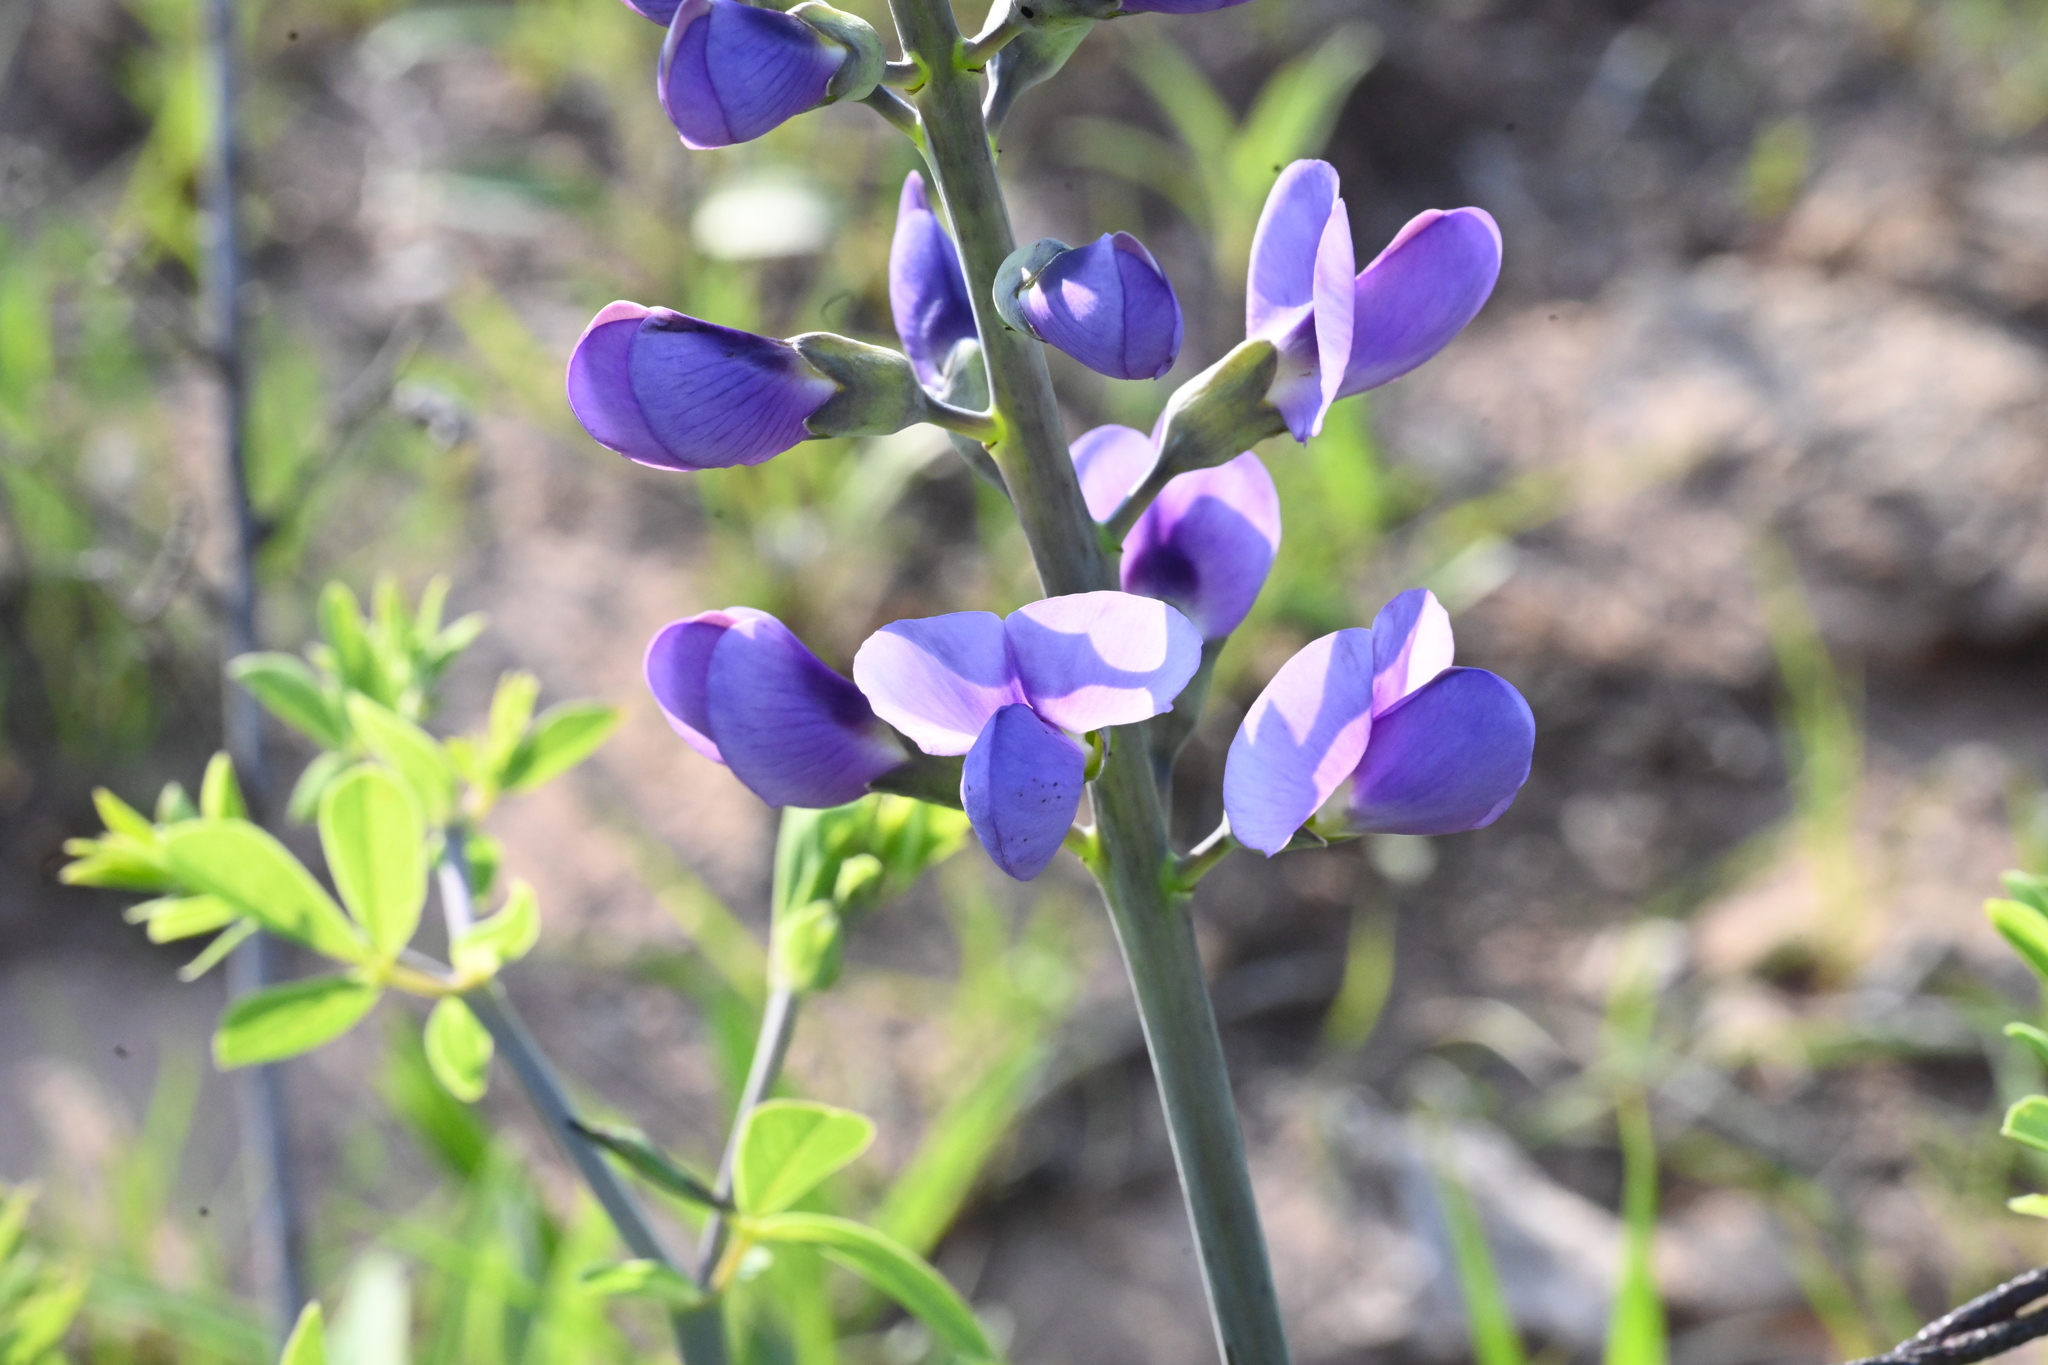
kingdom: Plantae
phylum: Tracheophyta
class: Magnoliopsida
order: Fabales
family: Fabaceae
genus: Baptisia
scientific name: Baptisia australis
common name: Blue false indigo
